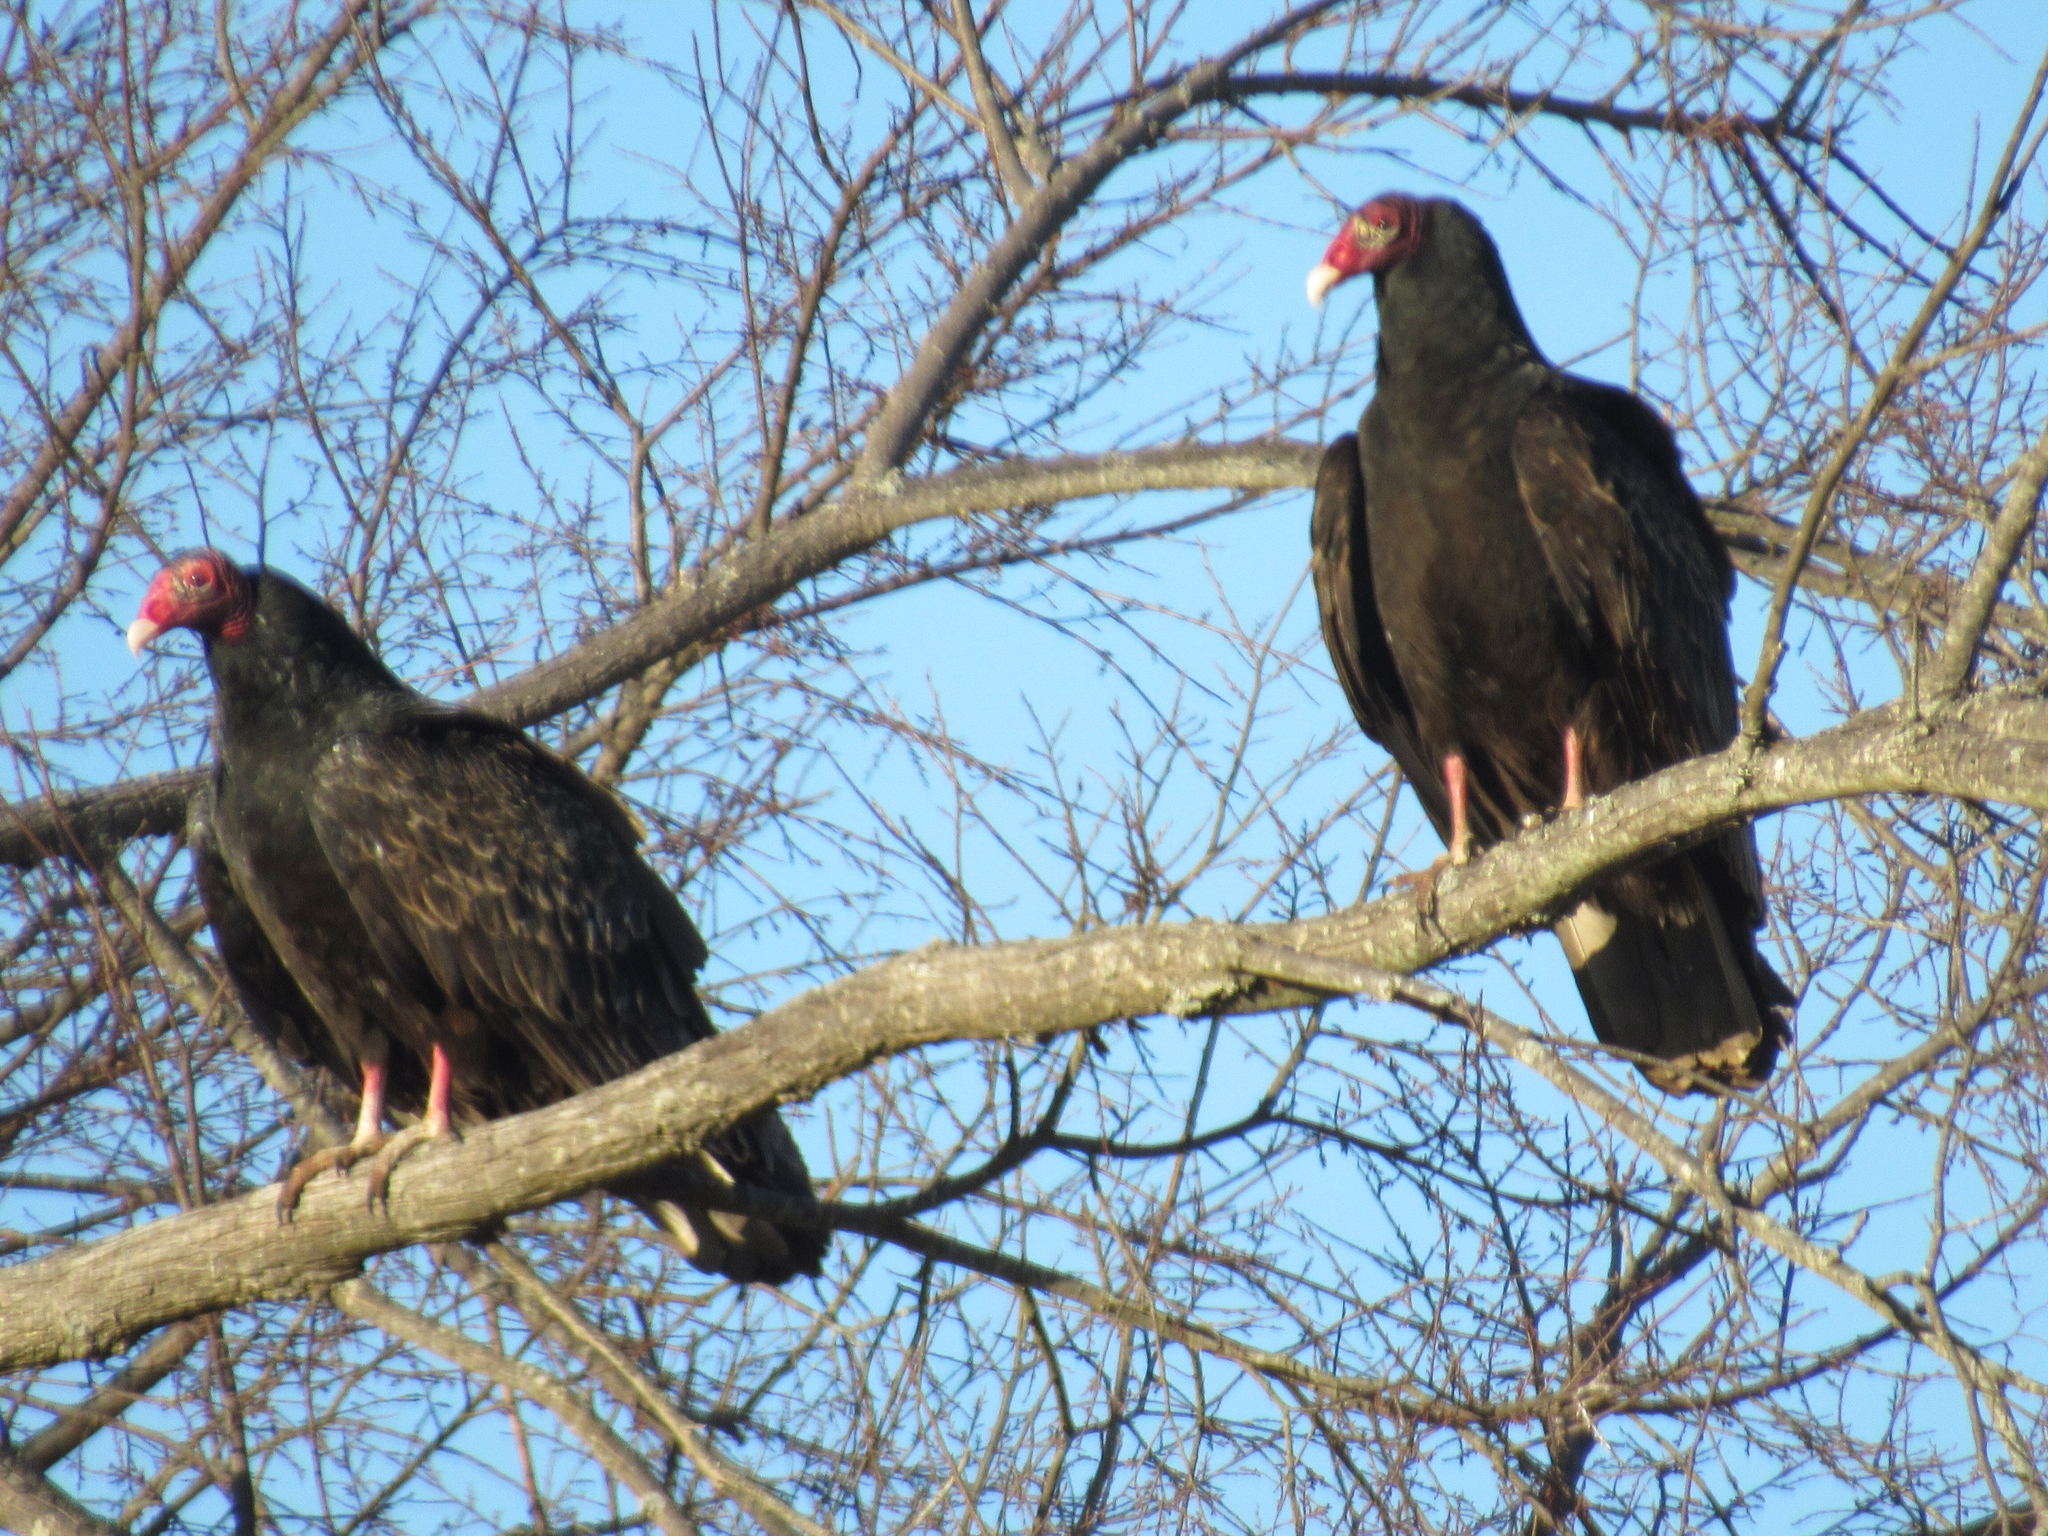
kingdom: Animalia
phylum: Chordata
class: Aves
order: Accipitriformes
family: Cathartidae
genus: Cathartes
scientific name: Cathartes aura
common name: Turkey vulture
